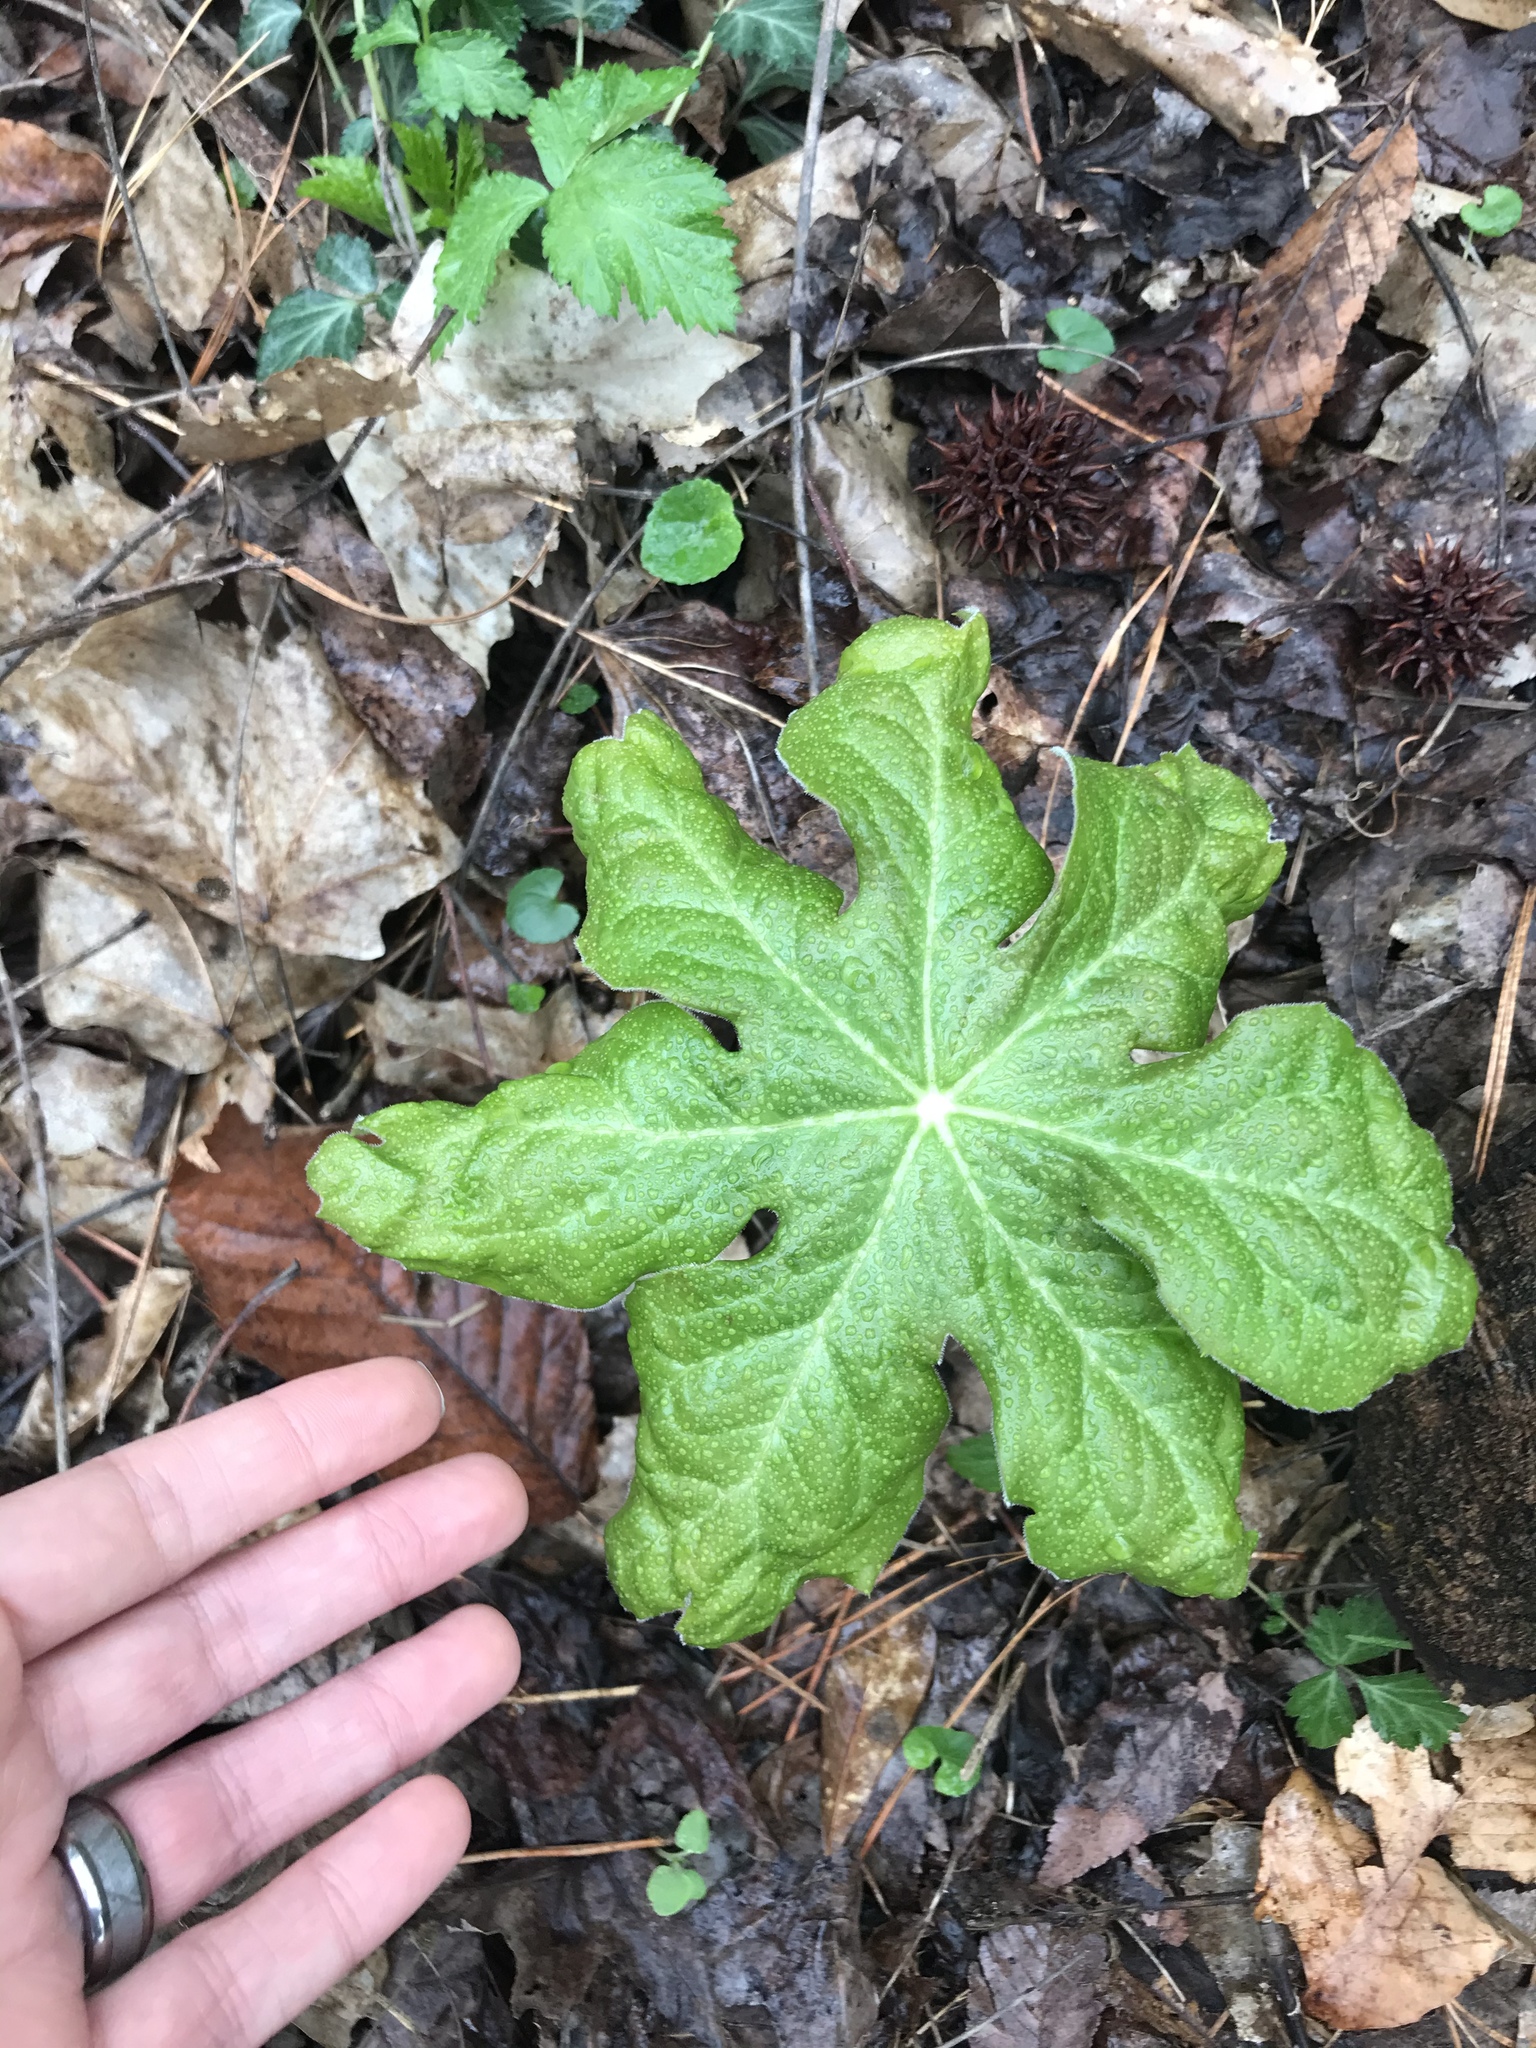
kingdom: Plantae
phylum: Tracheophyta
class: Magnoliopsida
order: Ranunculales
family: Berberidaceae
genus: Podophyllum
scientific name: Podophyllum peltatum
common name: Wild mandrake
